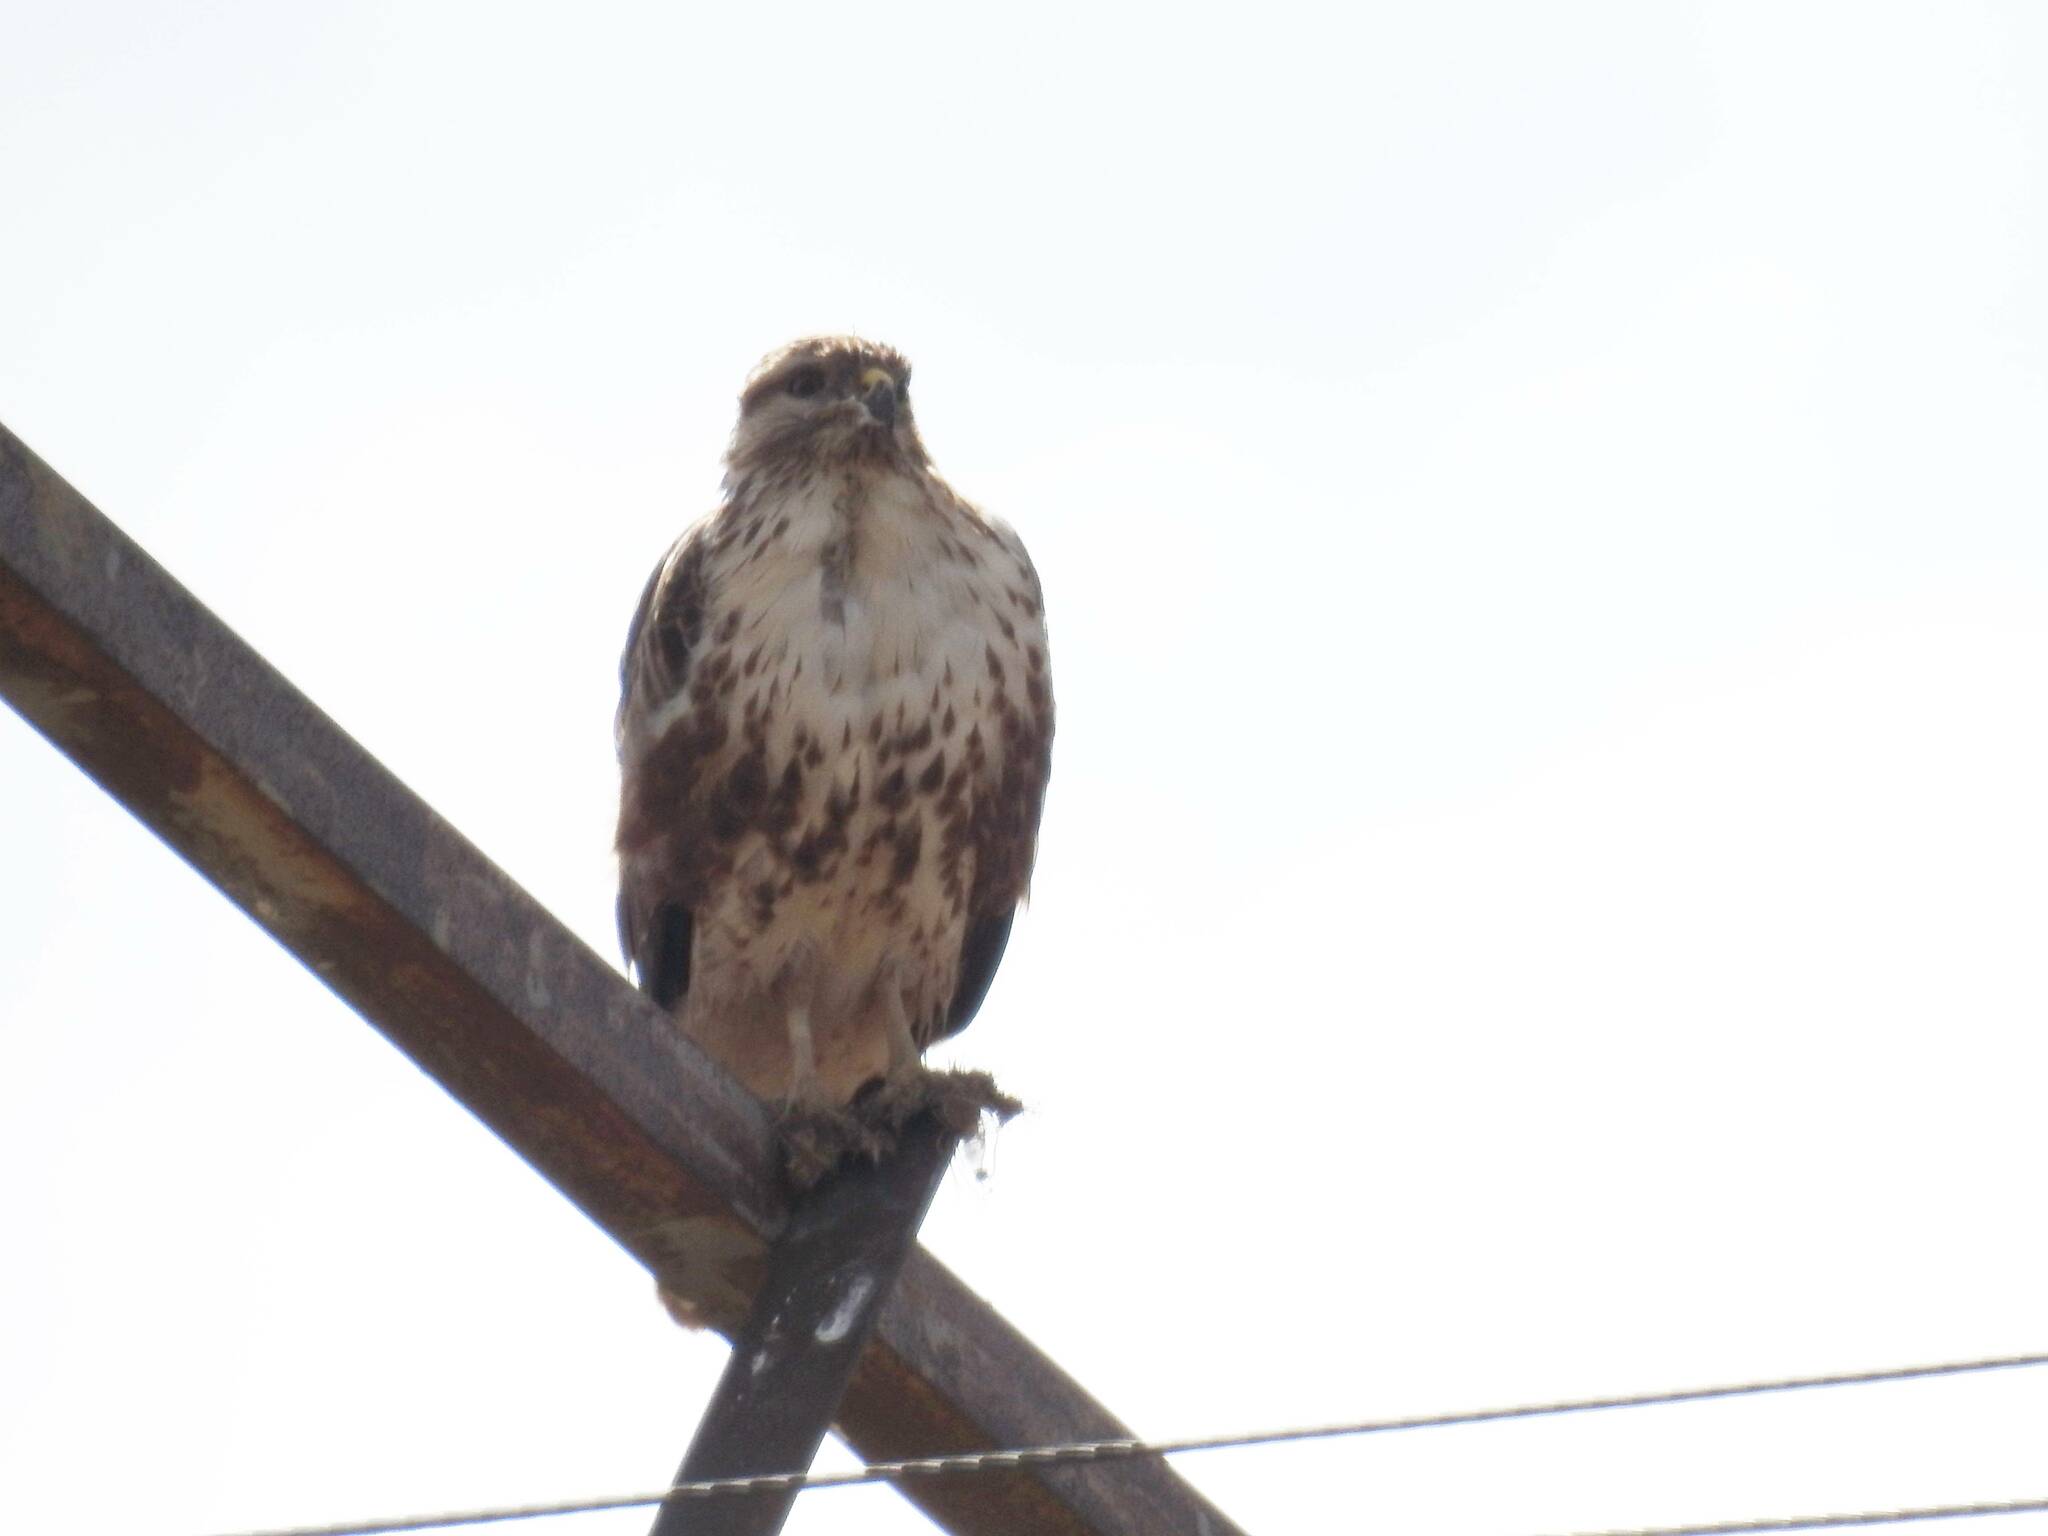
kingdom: Animalia
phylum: Chordata
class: Aves
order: Accipitriformes
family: Accipitridae
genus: Buteo
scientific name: Buteo rufinus
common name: Long-legged buzzard
